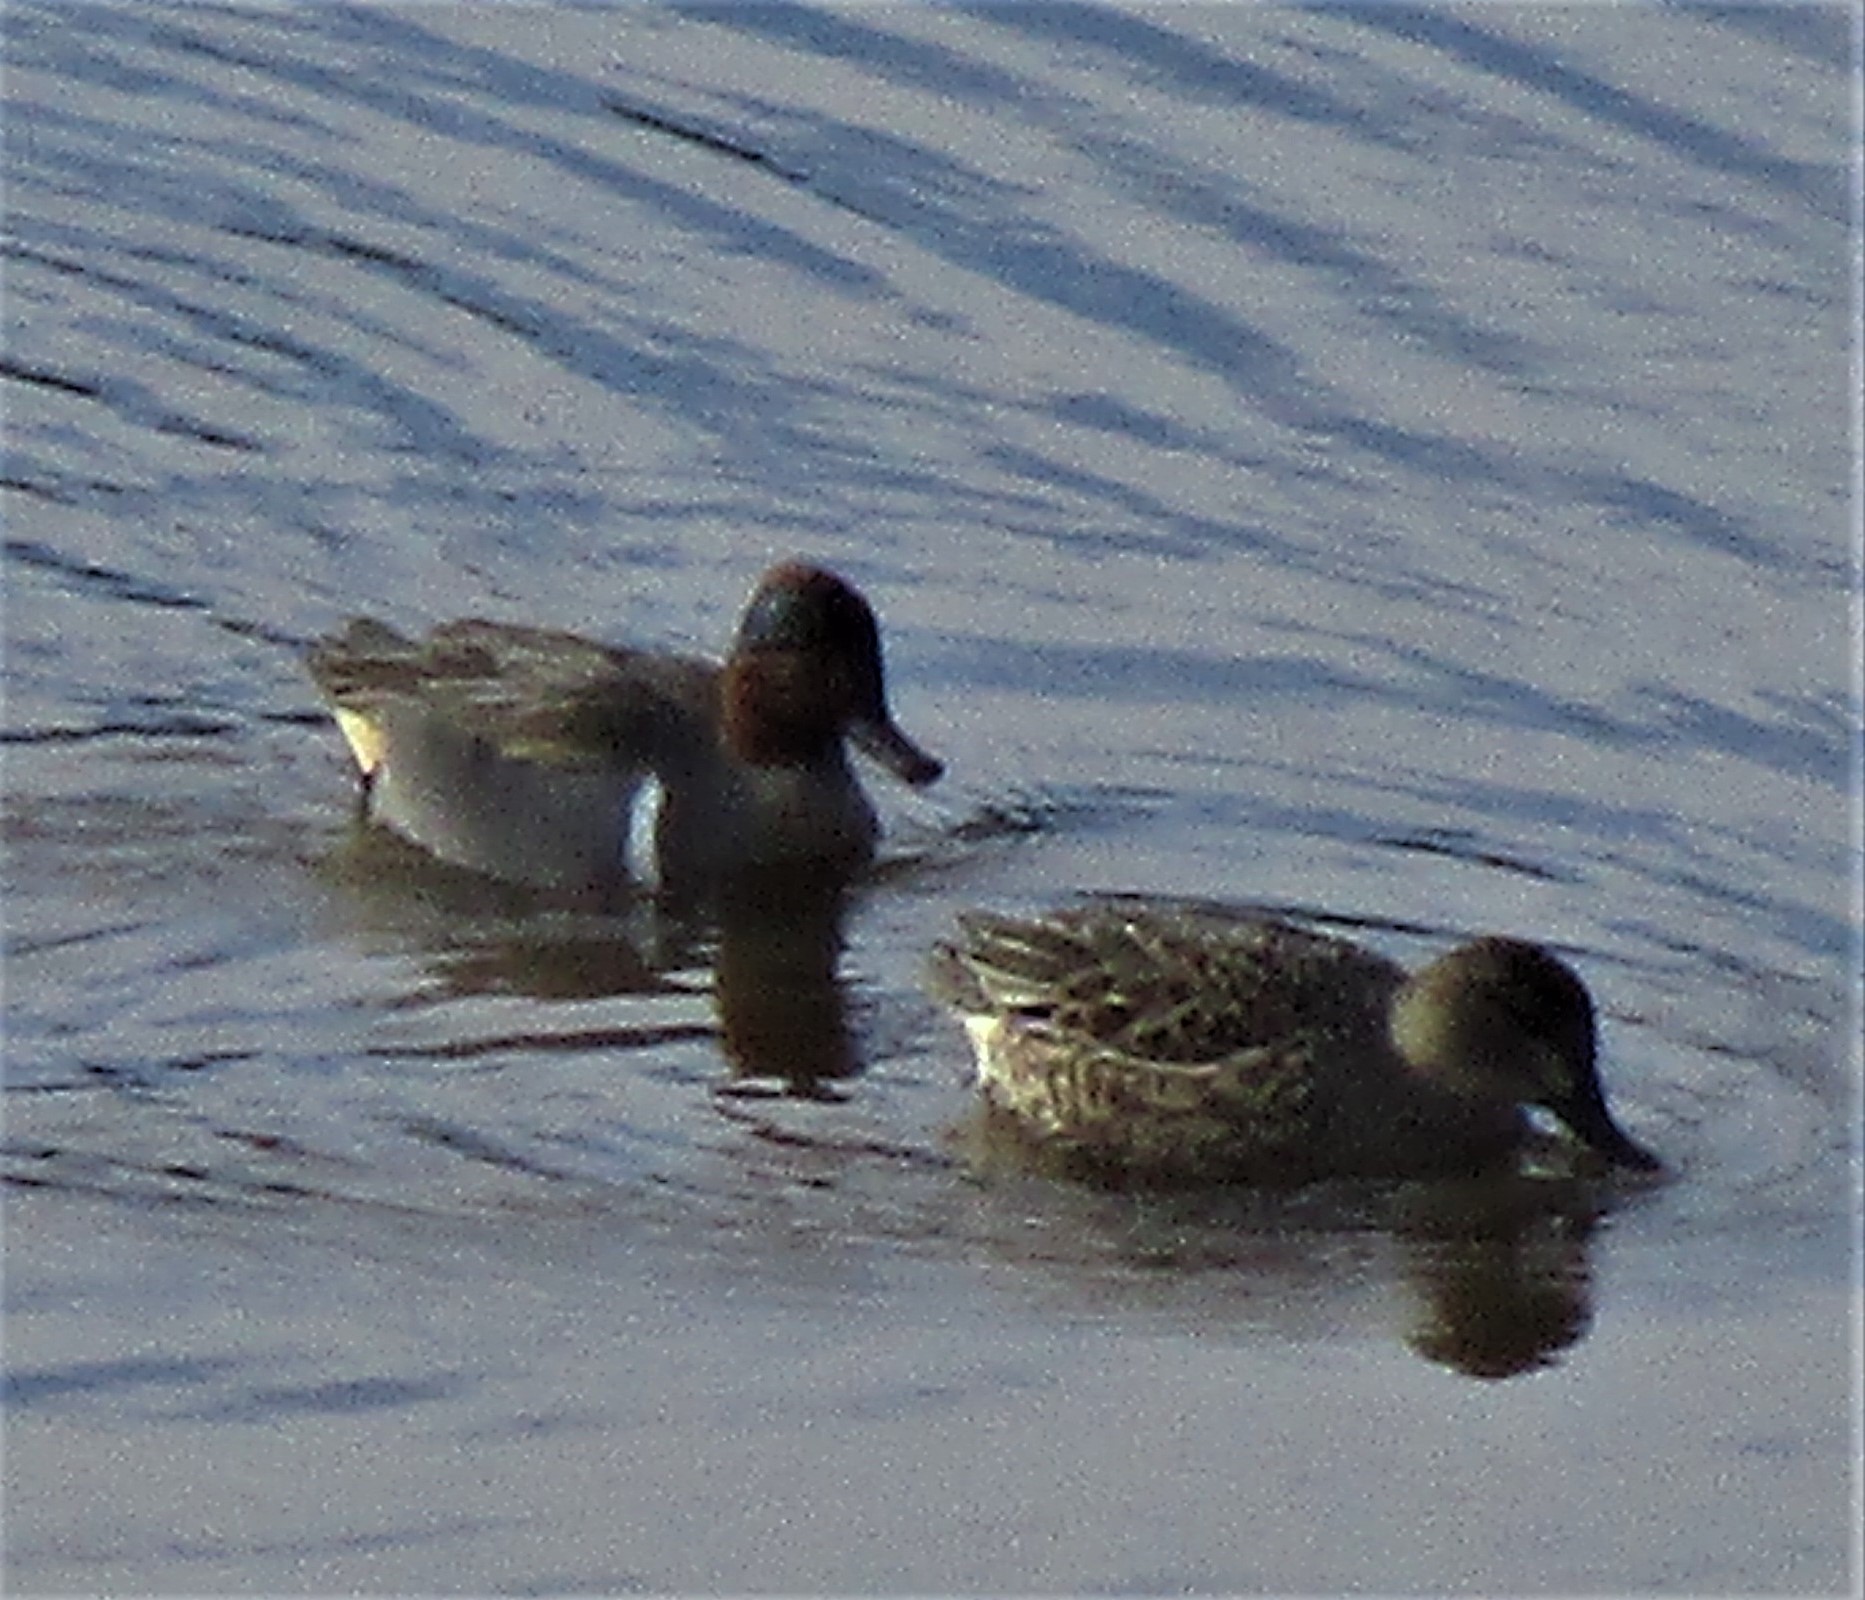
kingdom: Animalia
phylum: Chordata
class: Aves
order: Anseriformes
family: Anatidae
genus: Anas
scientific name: Anas crecca
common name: Eurasian teal
